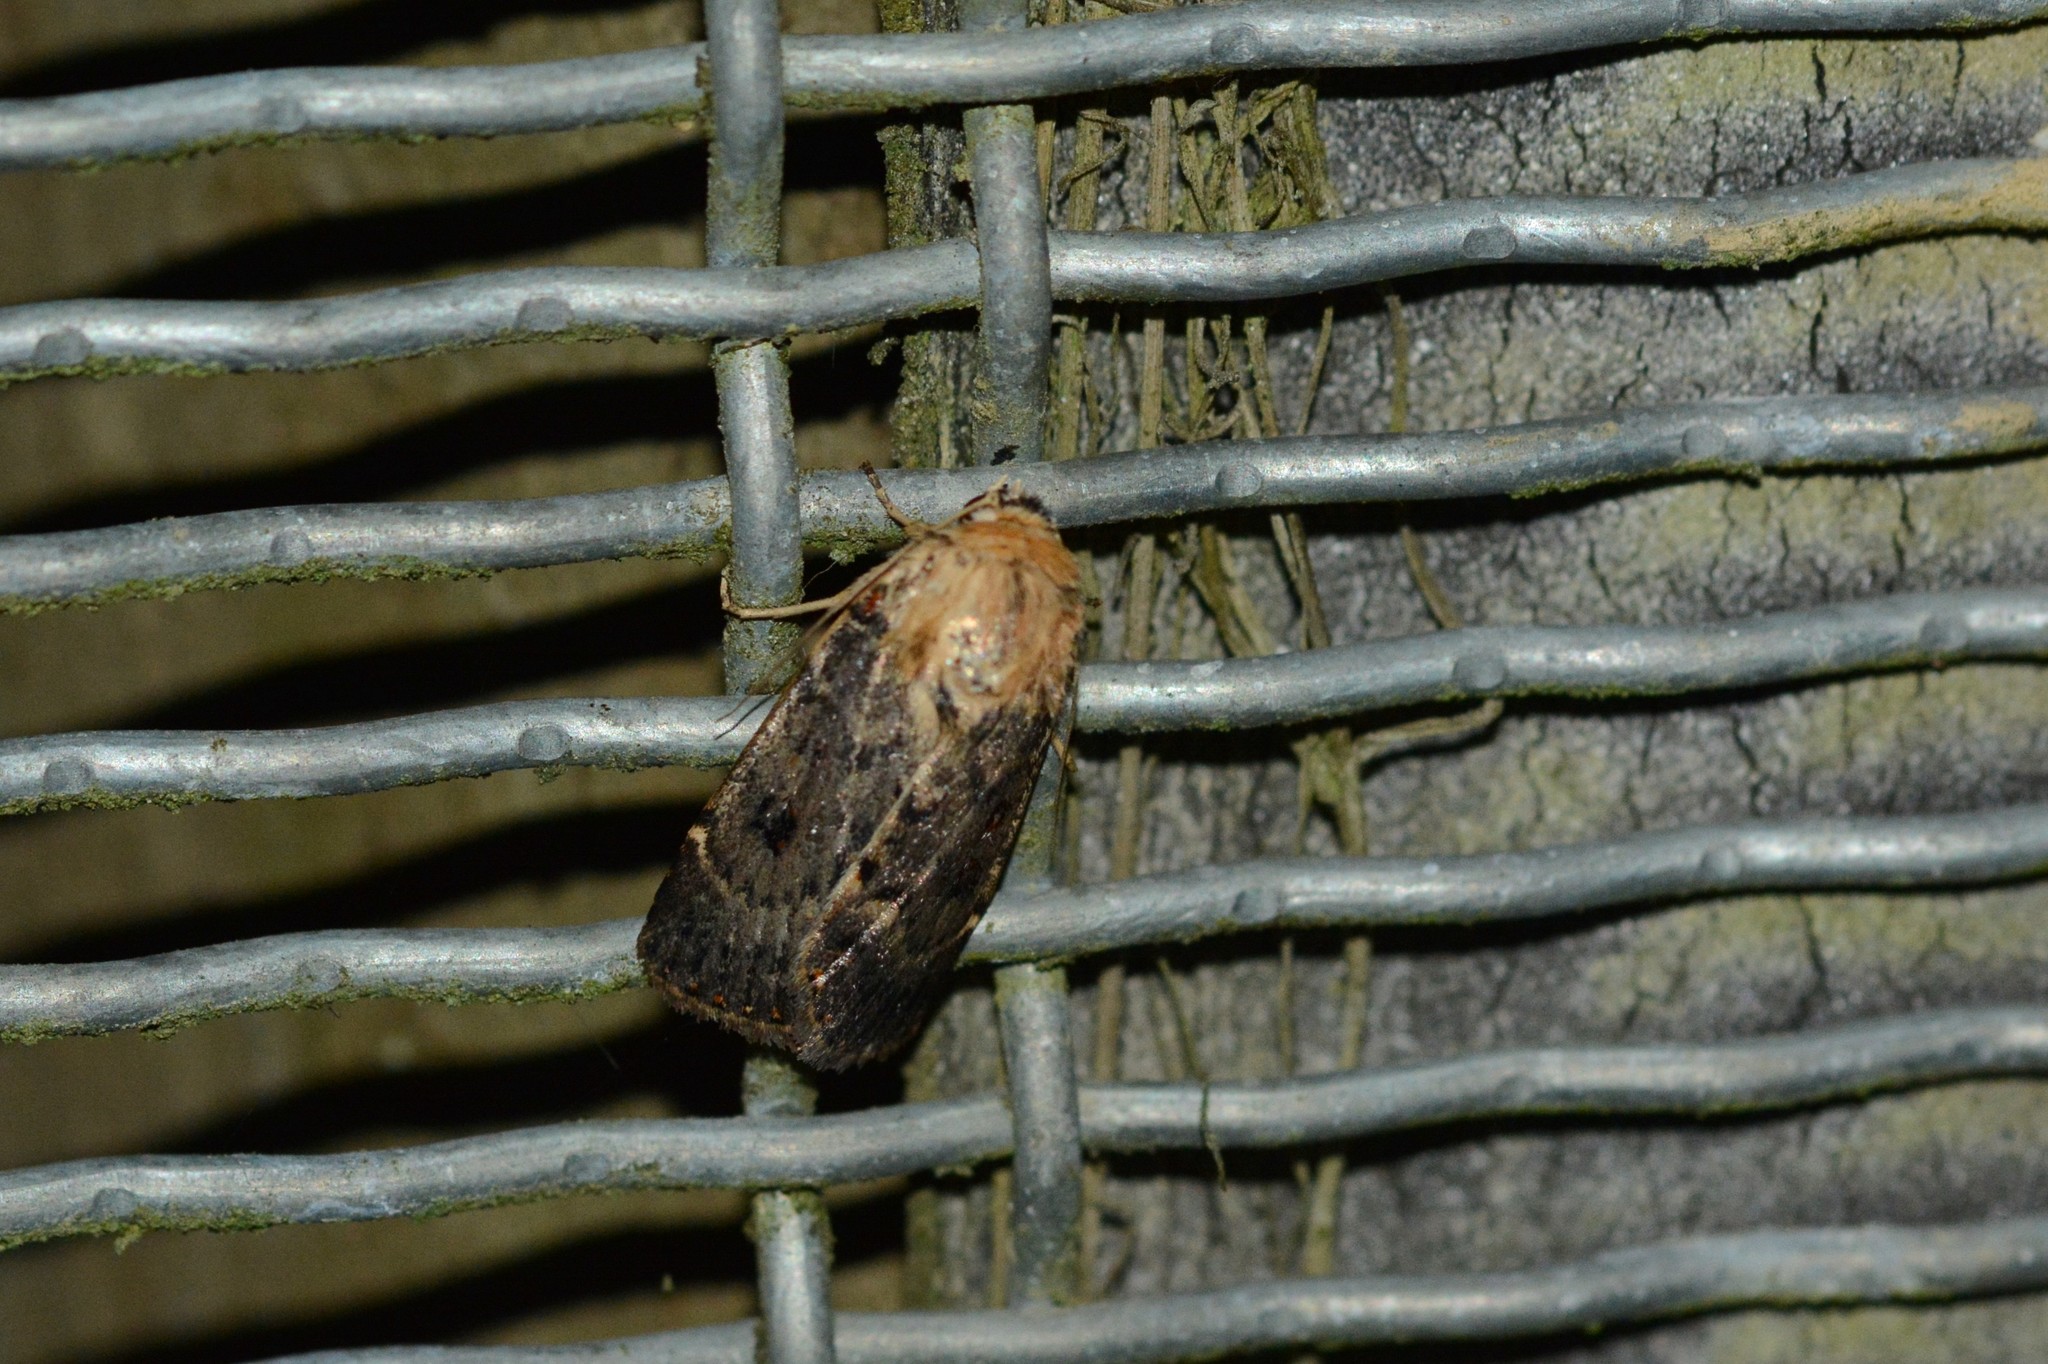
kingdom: Animalia
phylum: Arthropoda
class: Insecta
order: Lepidoptera
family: Noctuidae
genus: Proteuxoa
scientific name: Proteuxoa sanguinipuncta
